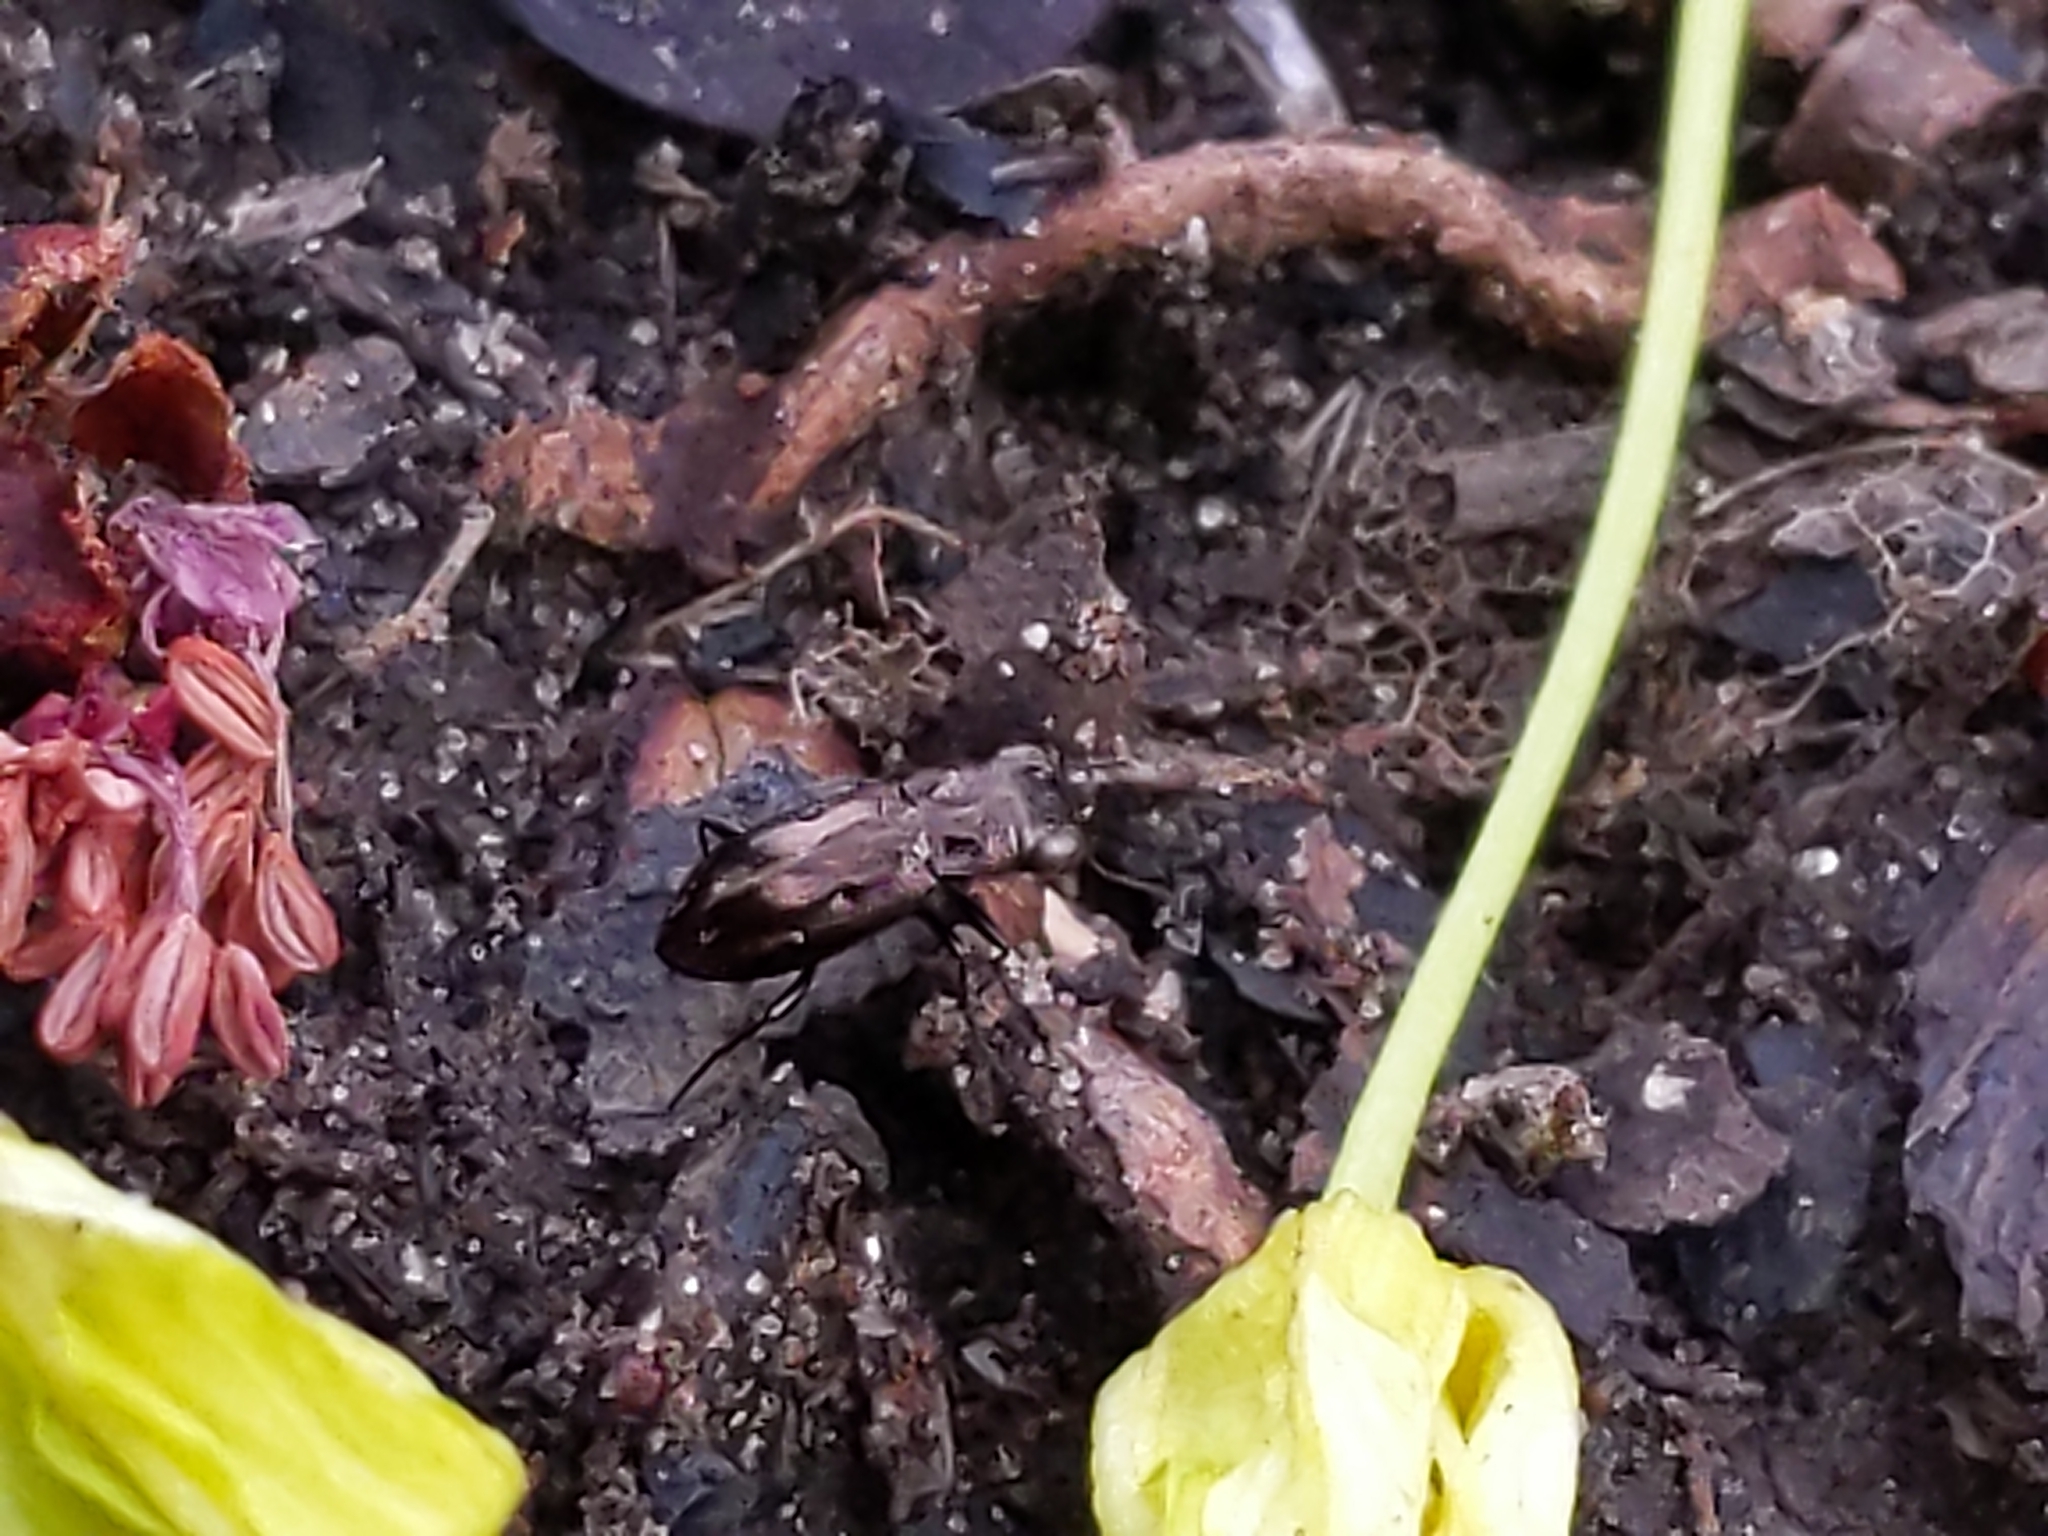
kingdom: Animalia
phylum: Arthropoda
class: Insecta
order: Coleoptera
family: Carabidae
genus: Notiophilus
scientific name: Notiophilus
